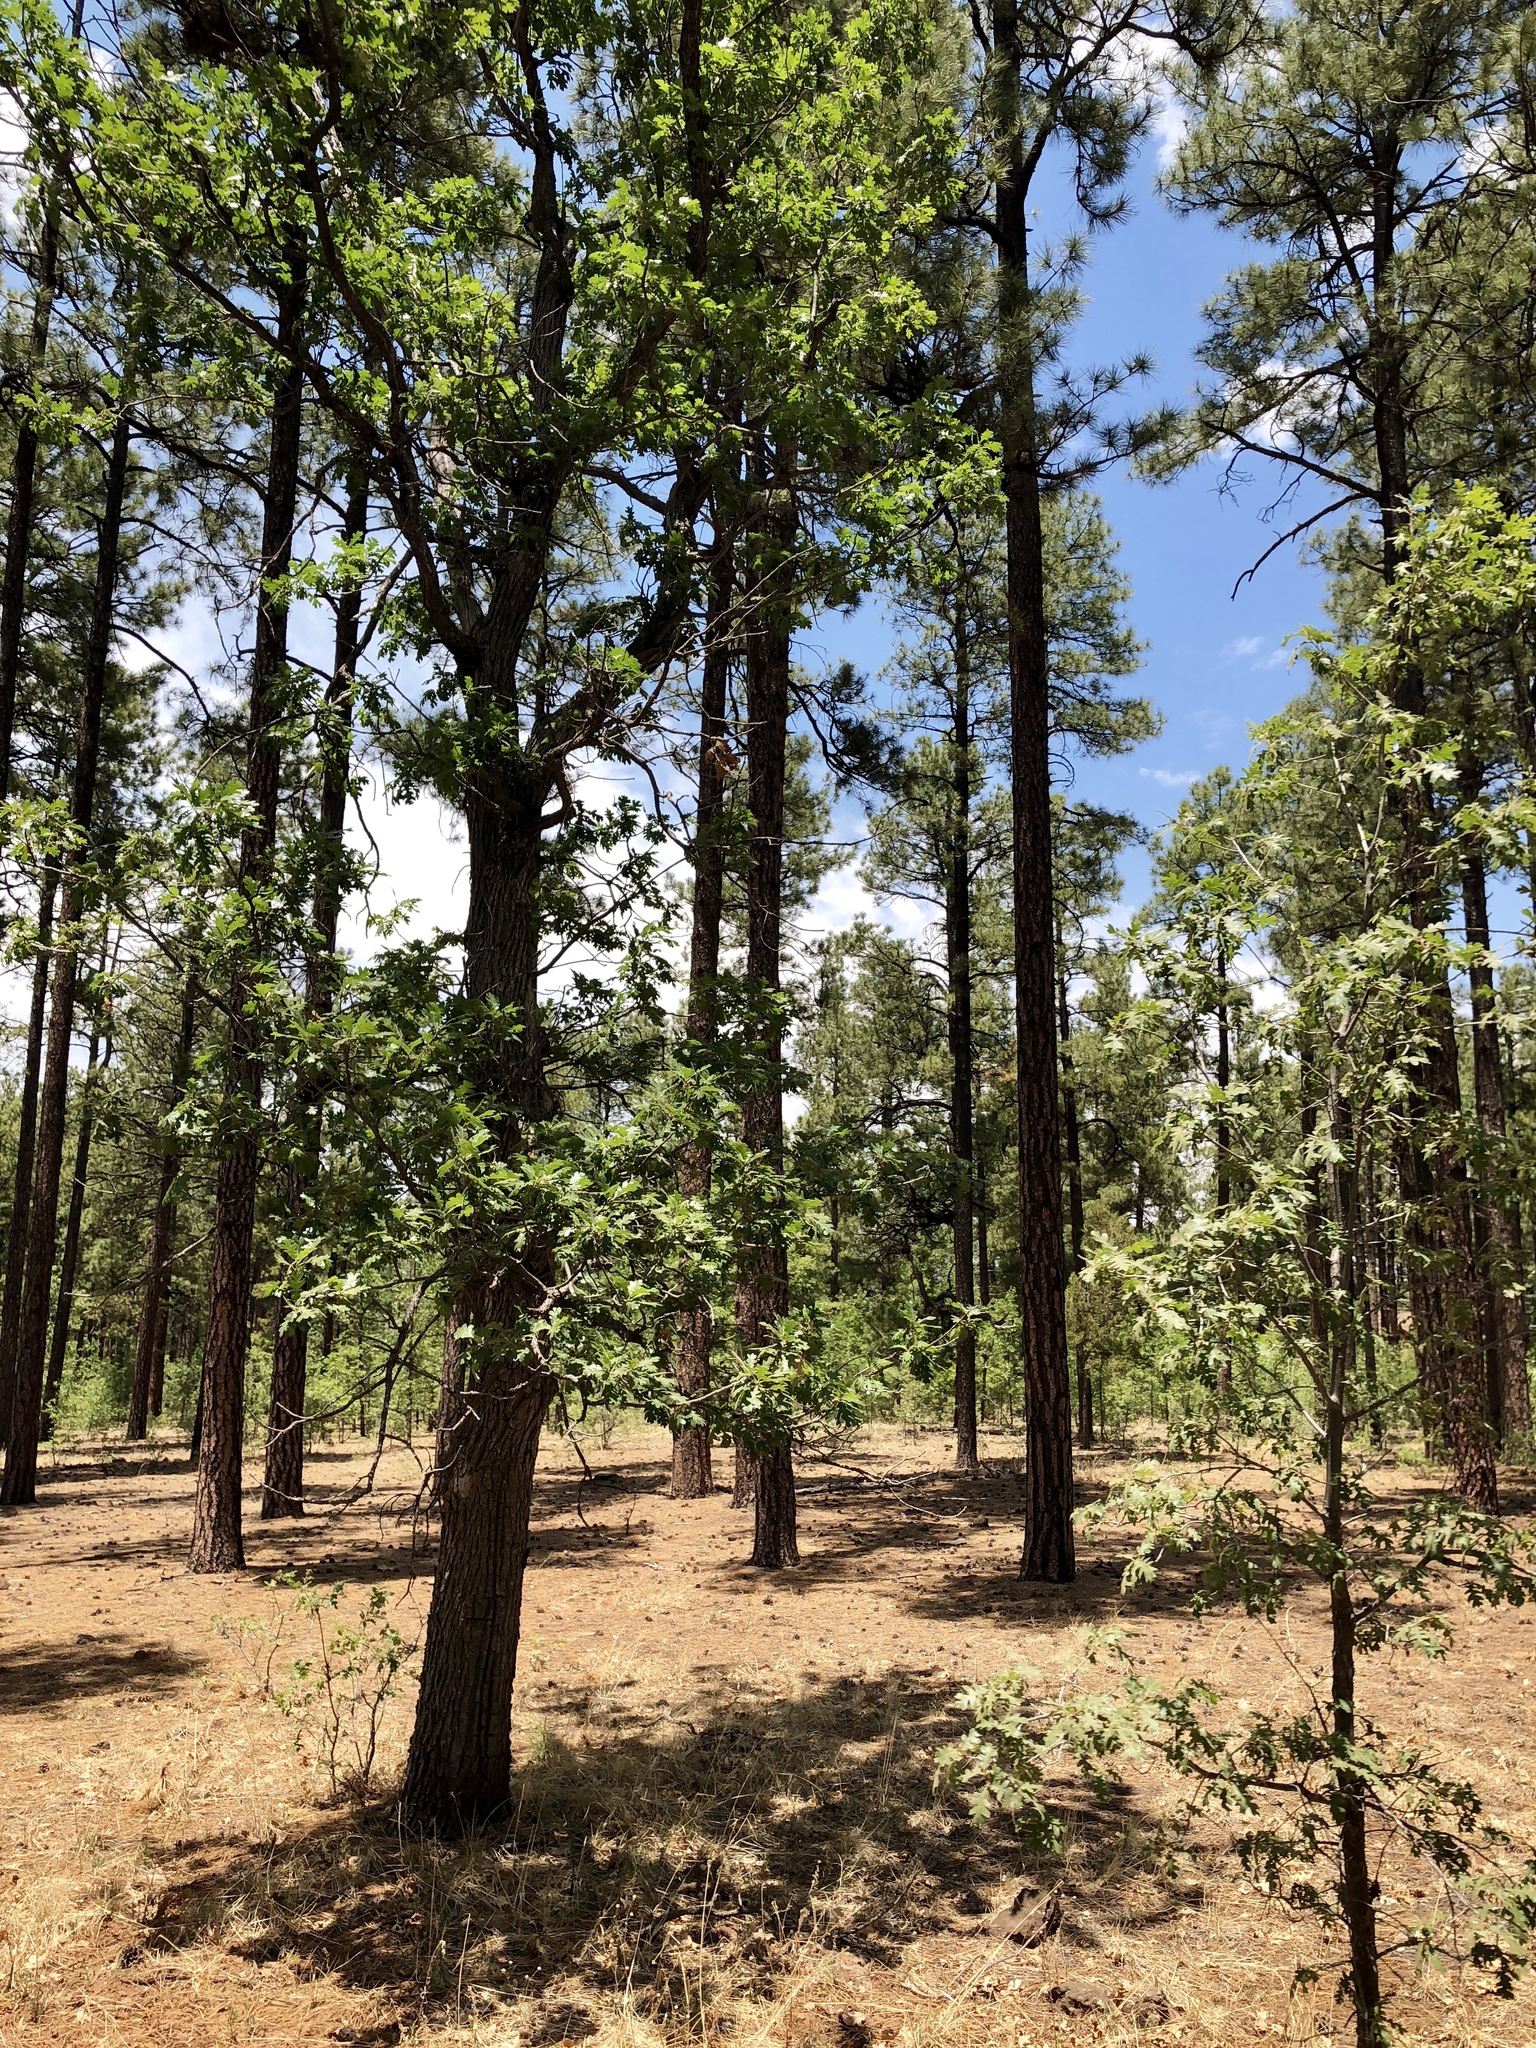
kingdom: Plantae
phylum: Tracheophyta
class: Magnoliopsida
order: Fagales
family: Fagaceae
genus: Quercus
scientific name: Quercus gambelii
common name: Gambel oak
